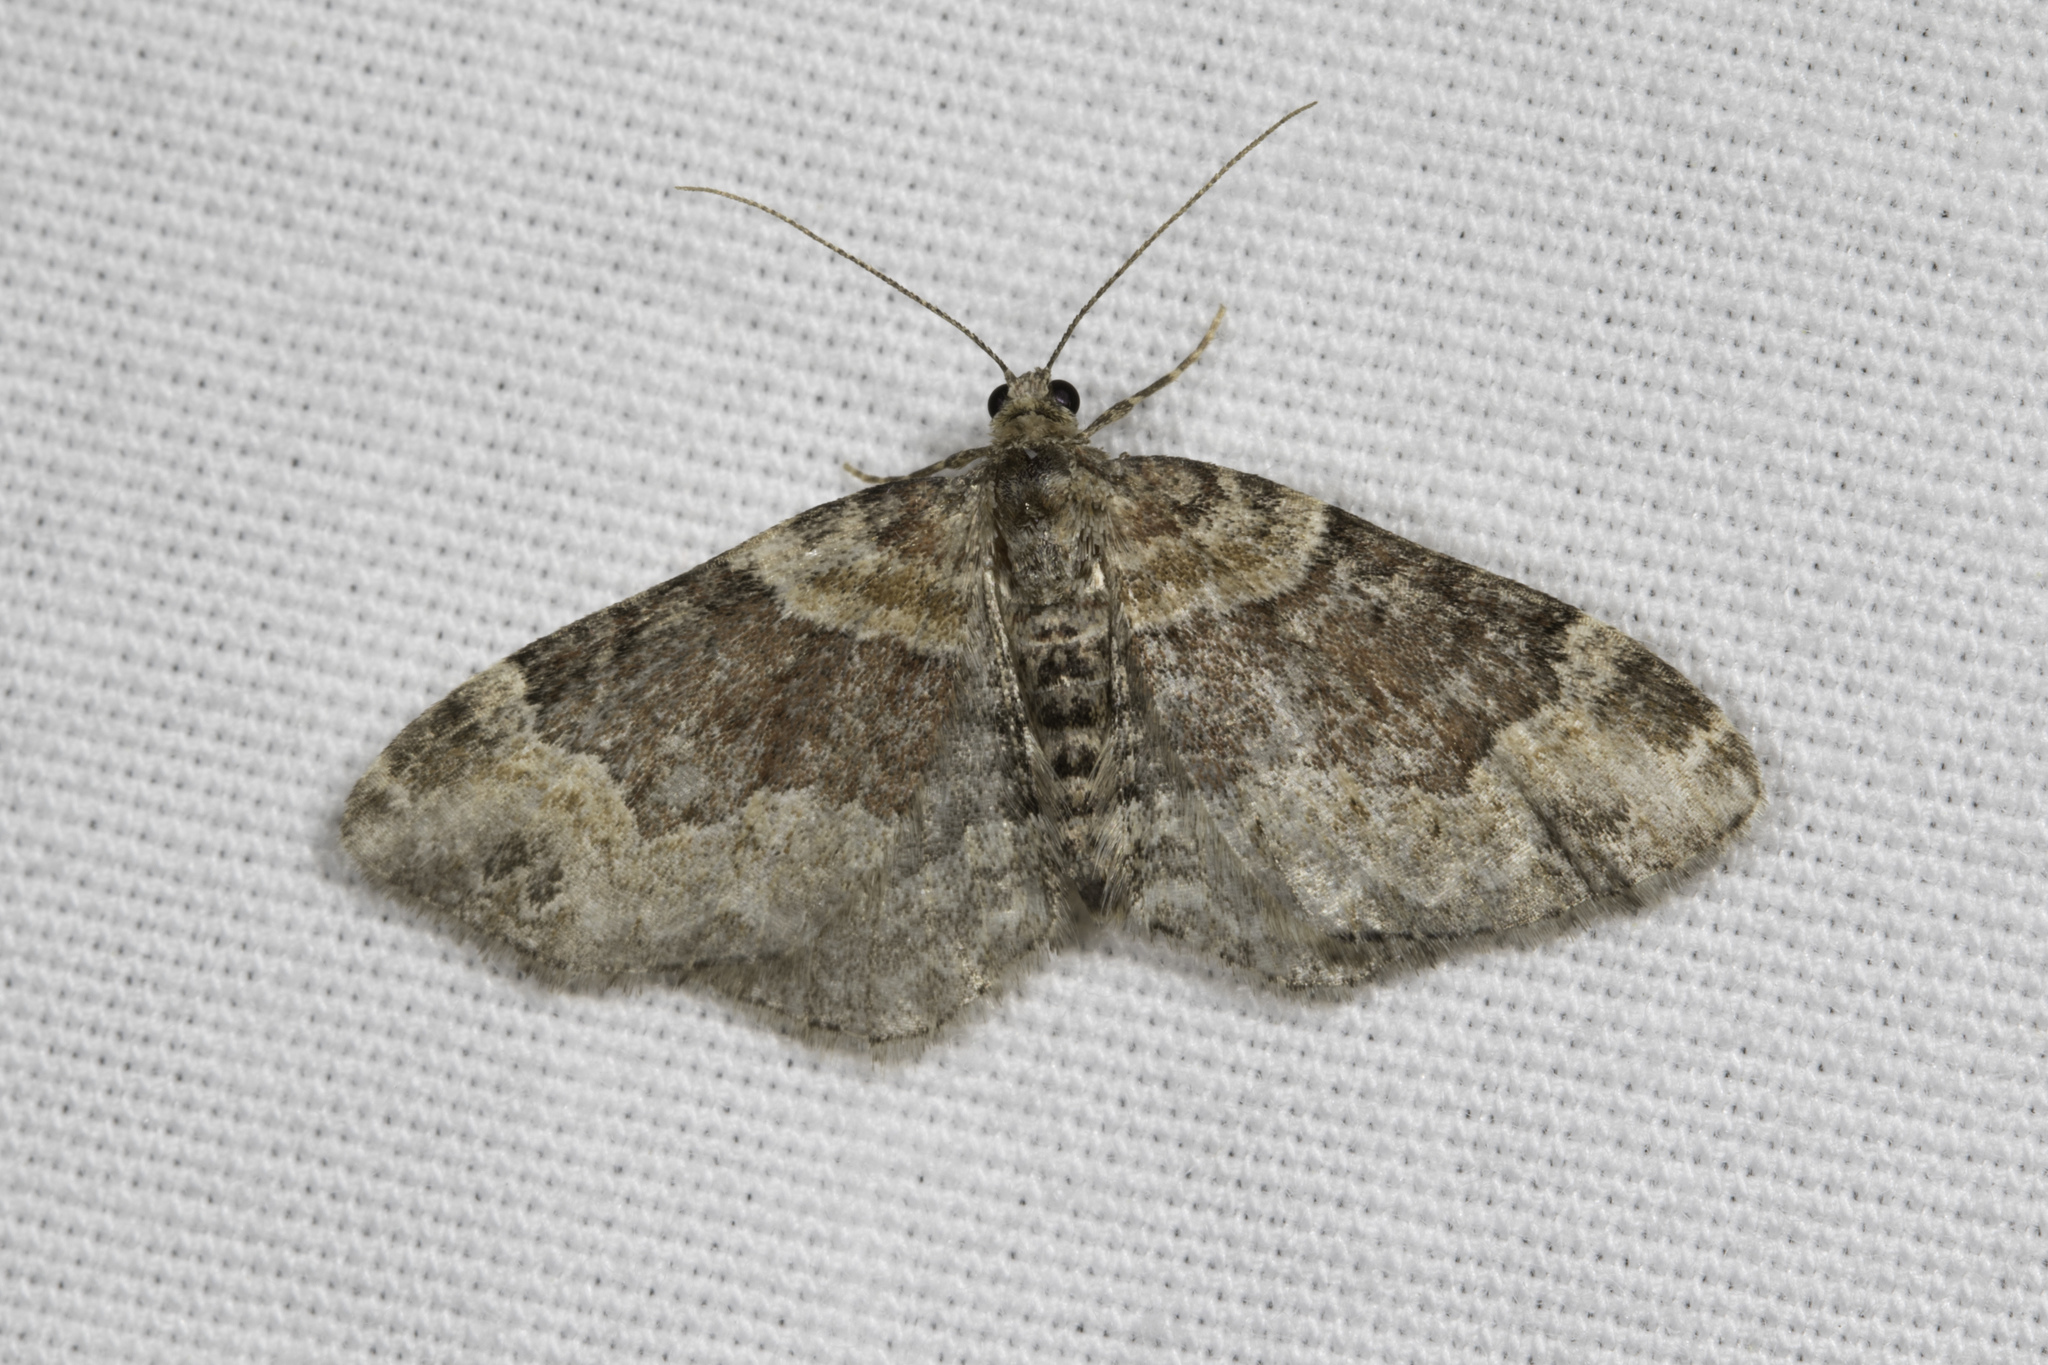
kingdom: Animalia
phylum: Arthropoda
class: Insecta
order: Lepidoptera
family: Geometridae
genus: Xanthorhoe
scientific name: Xanthorhoe ferrugata
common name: Dark-barred twin-spot carpet
